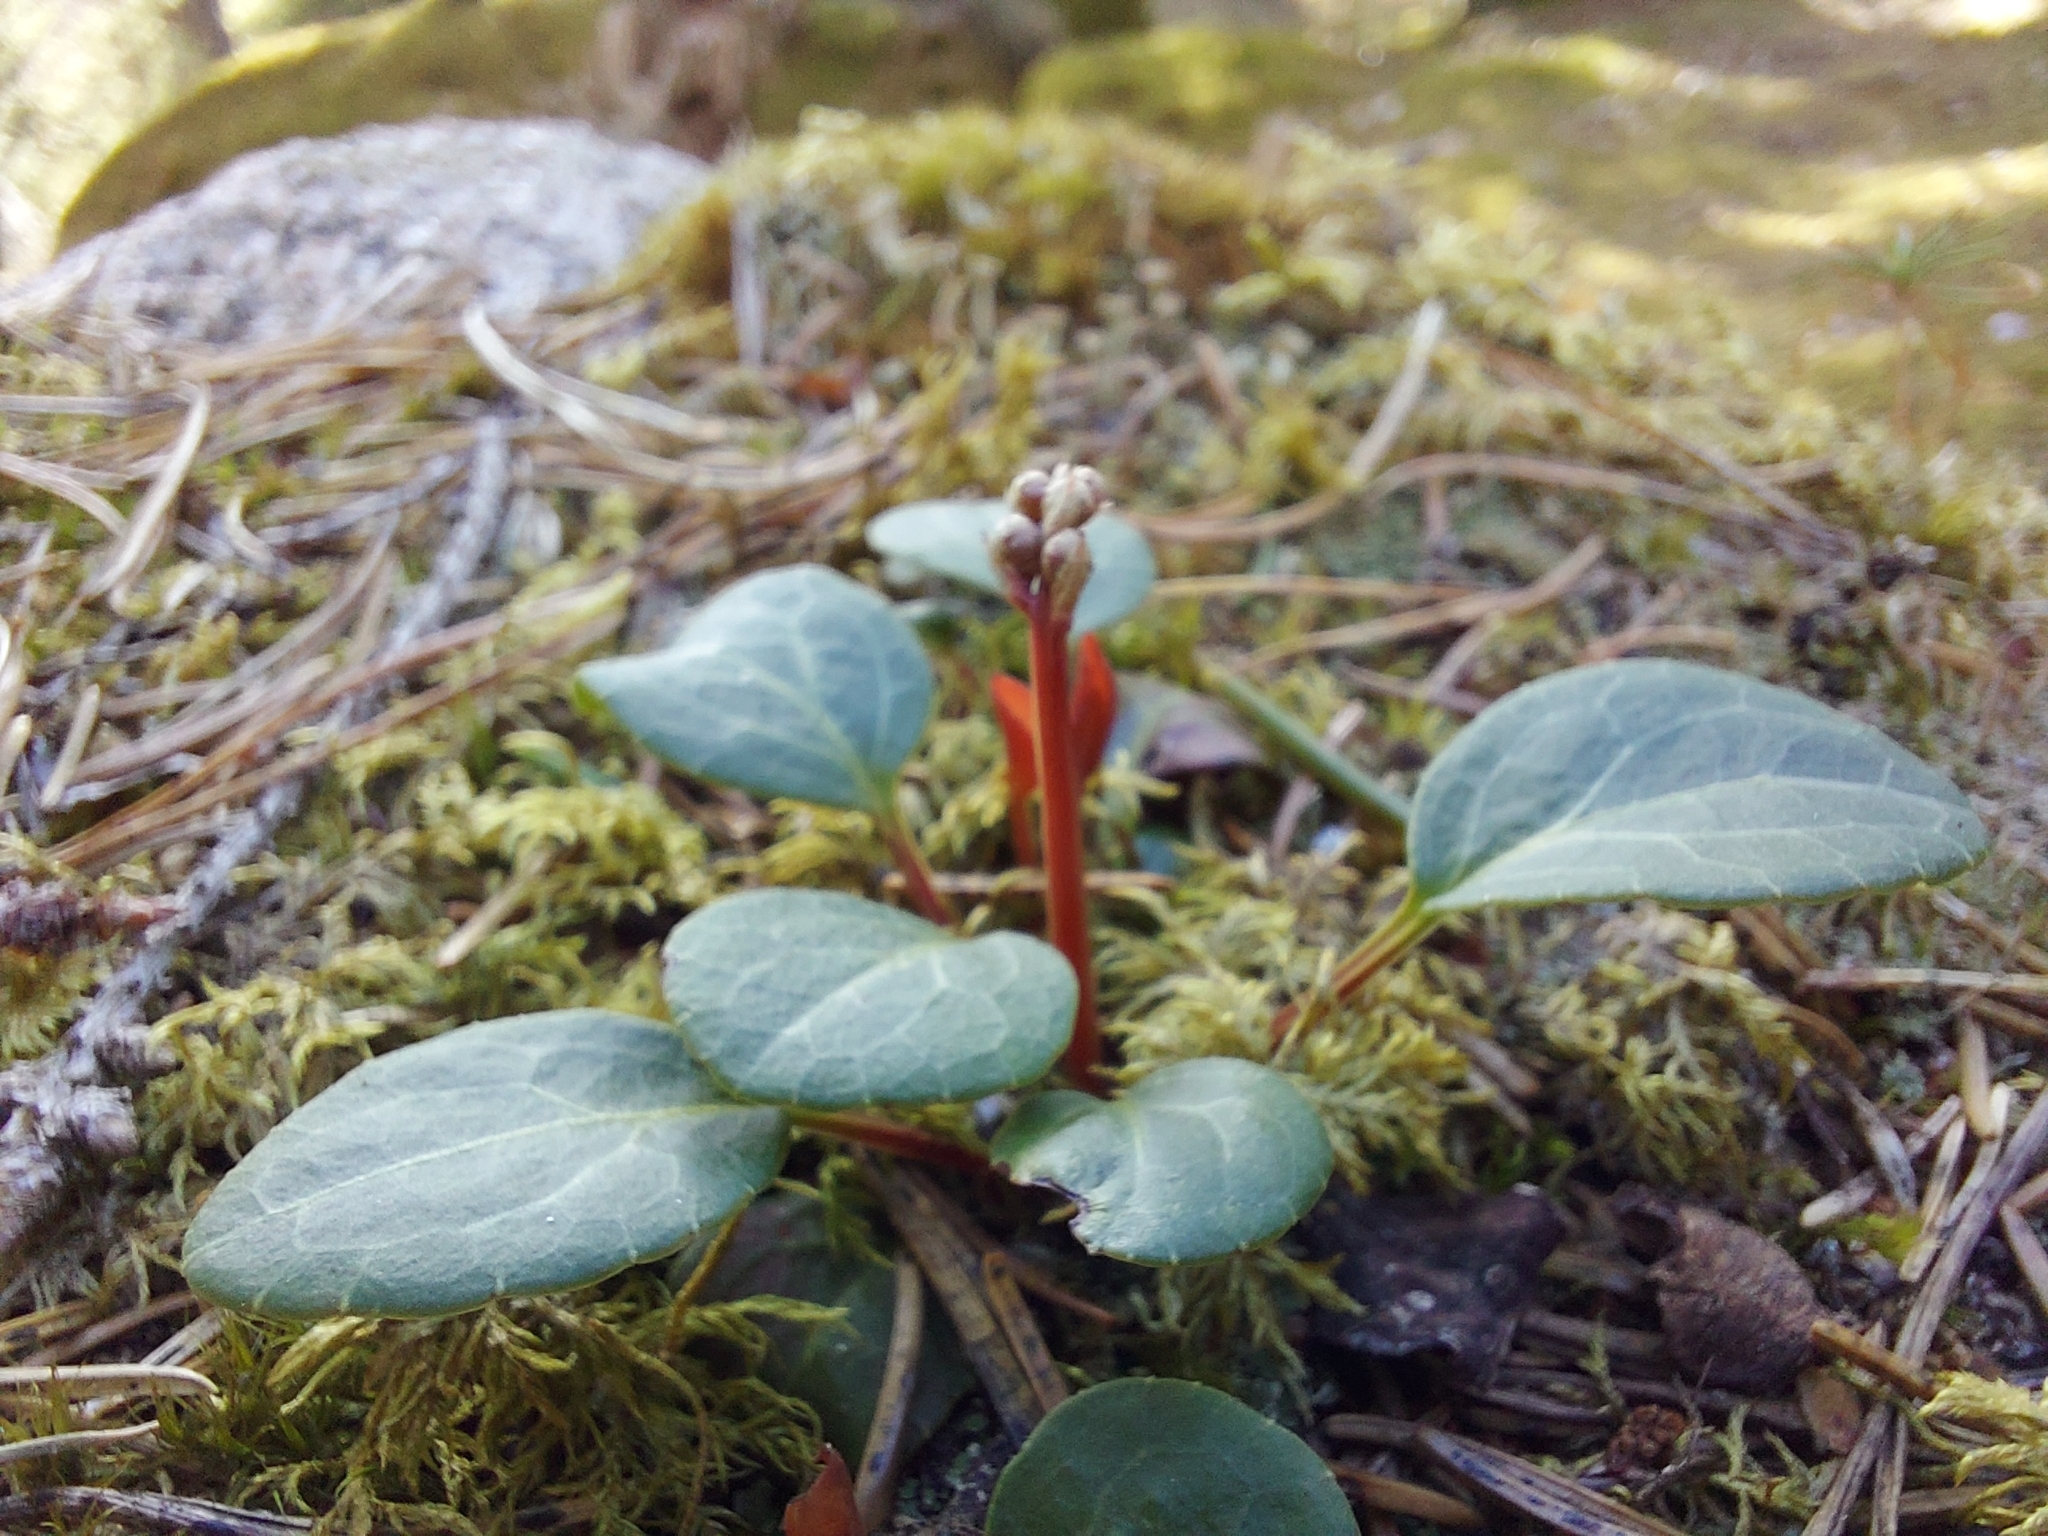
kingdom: Plantae
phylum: Tracheophyta
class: Magnoliopsida
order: Ericales
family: Ericaceae
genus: Pyrola
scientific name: Pyrola chlorantha
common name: Green wintergreen
